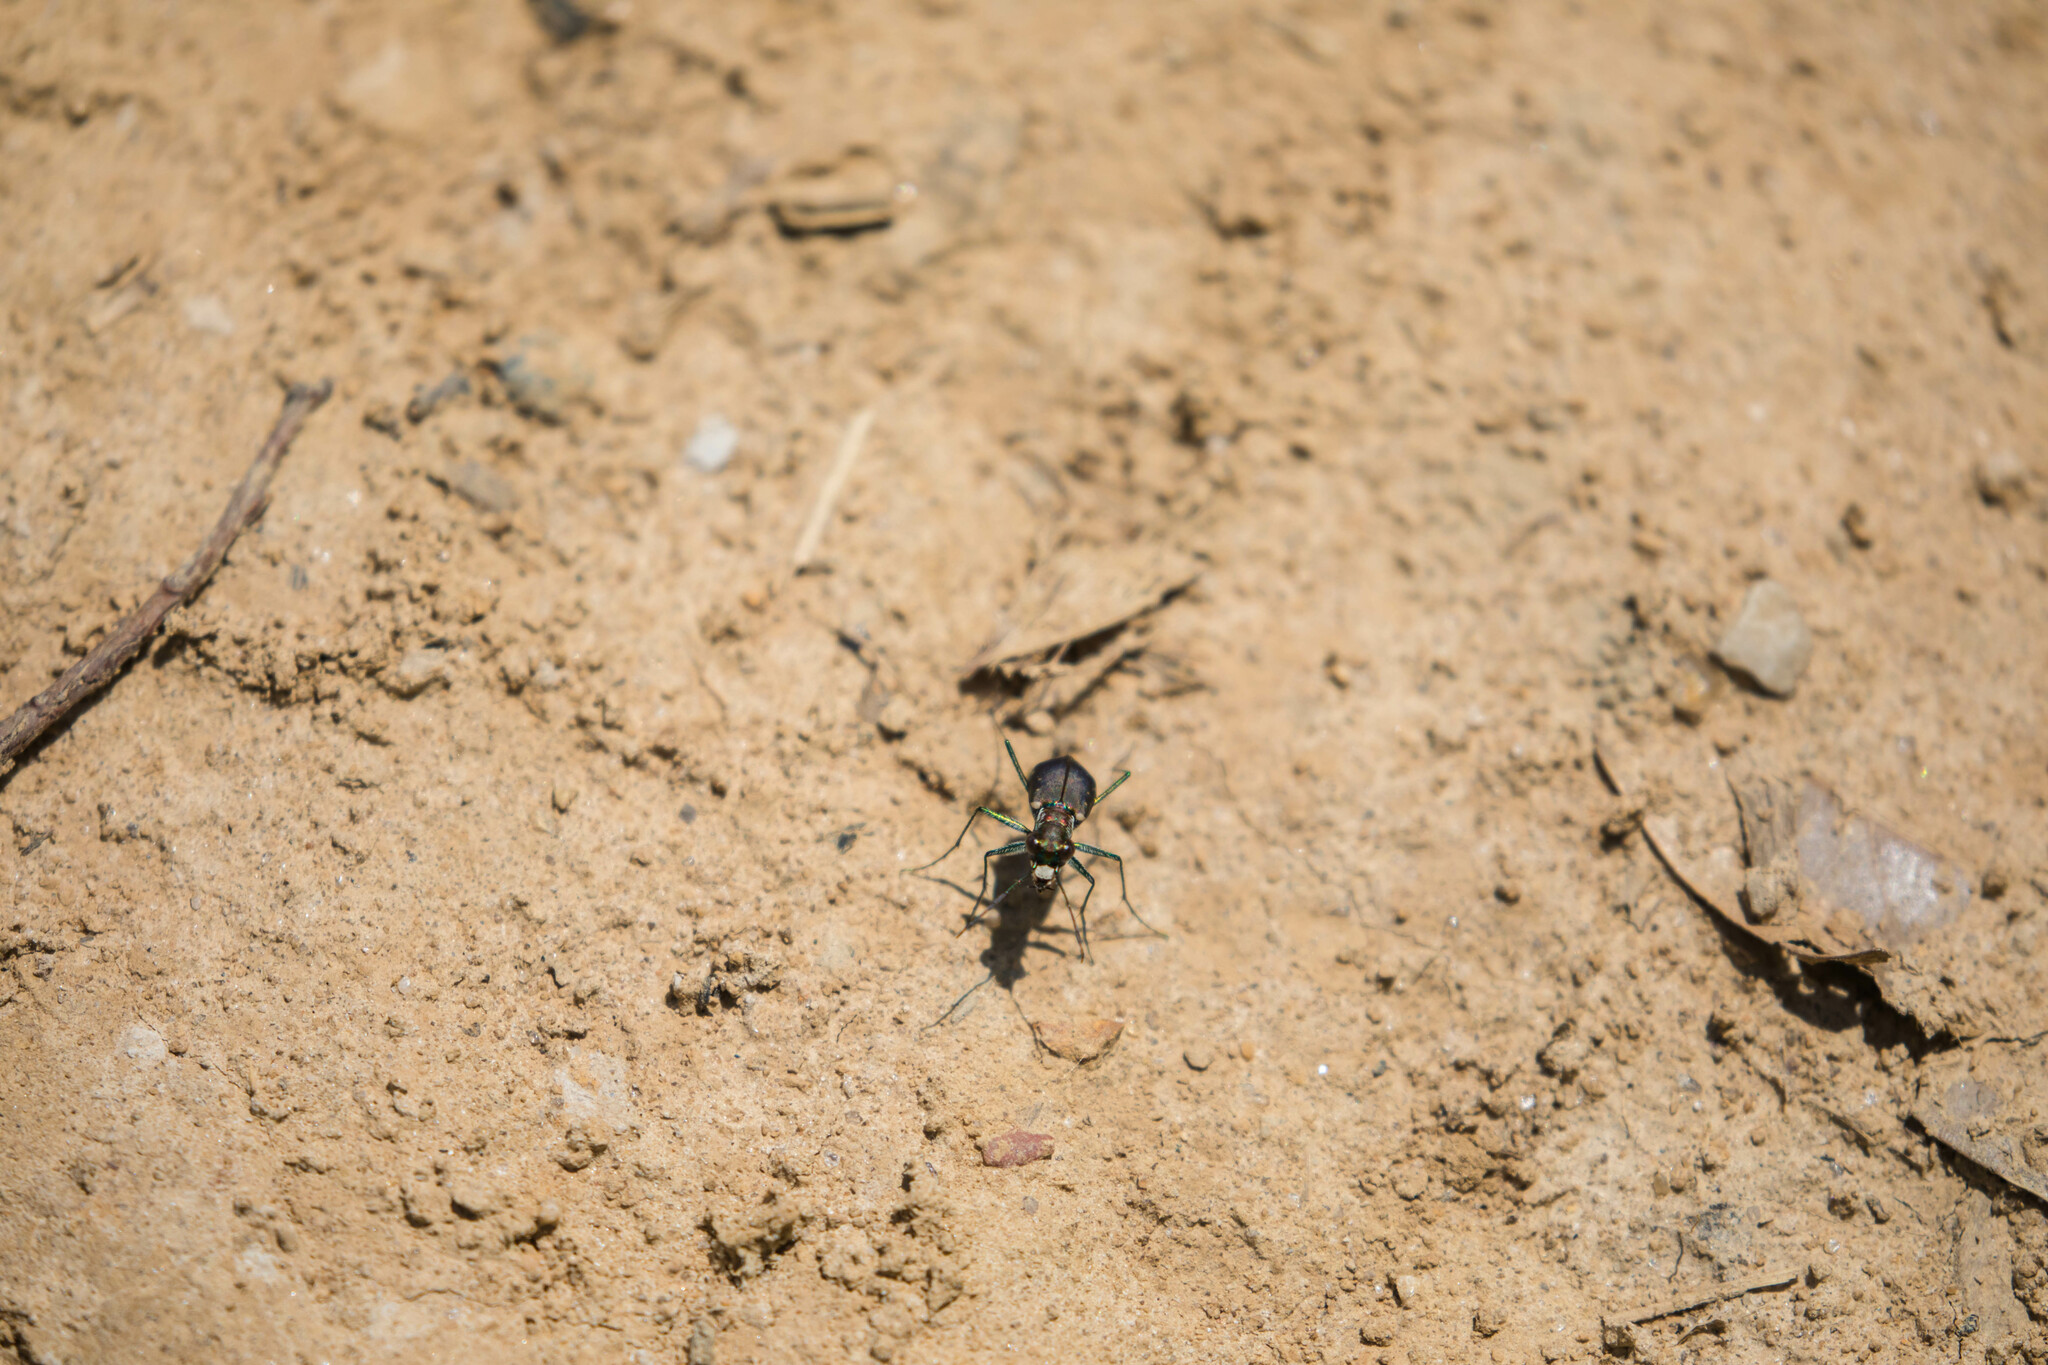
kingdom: Animalia
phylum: Arthropoda
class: Insecta
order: Coleoptera
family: Carabidae
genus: Cicindela
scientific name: Cicindela rufiventris
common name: Eastern red-bellied tiger beetle
